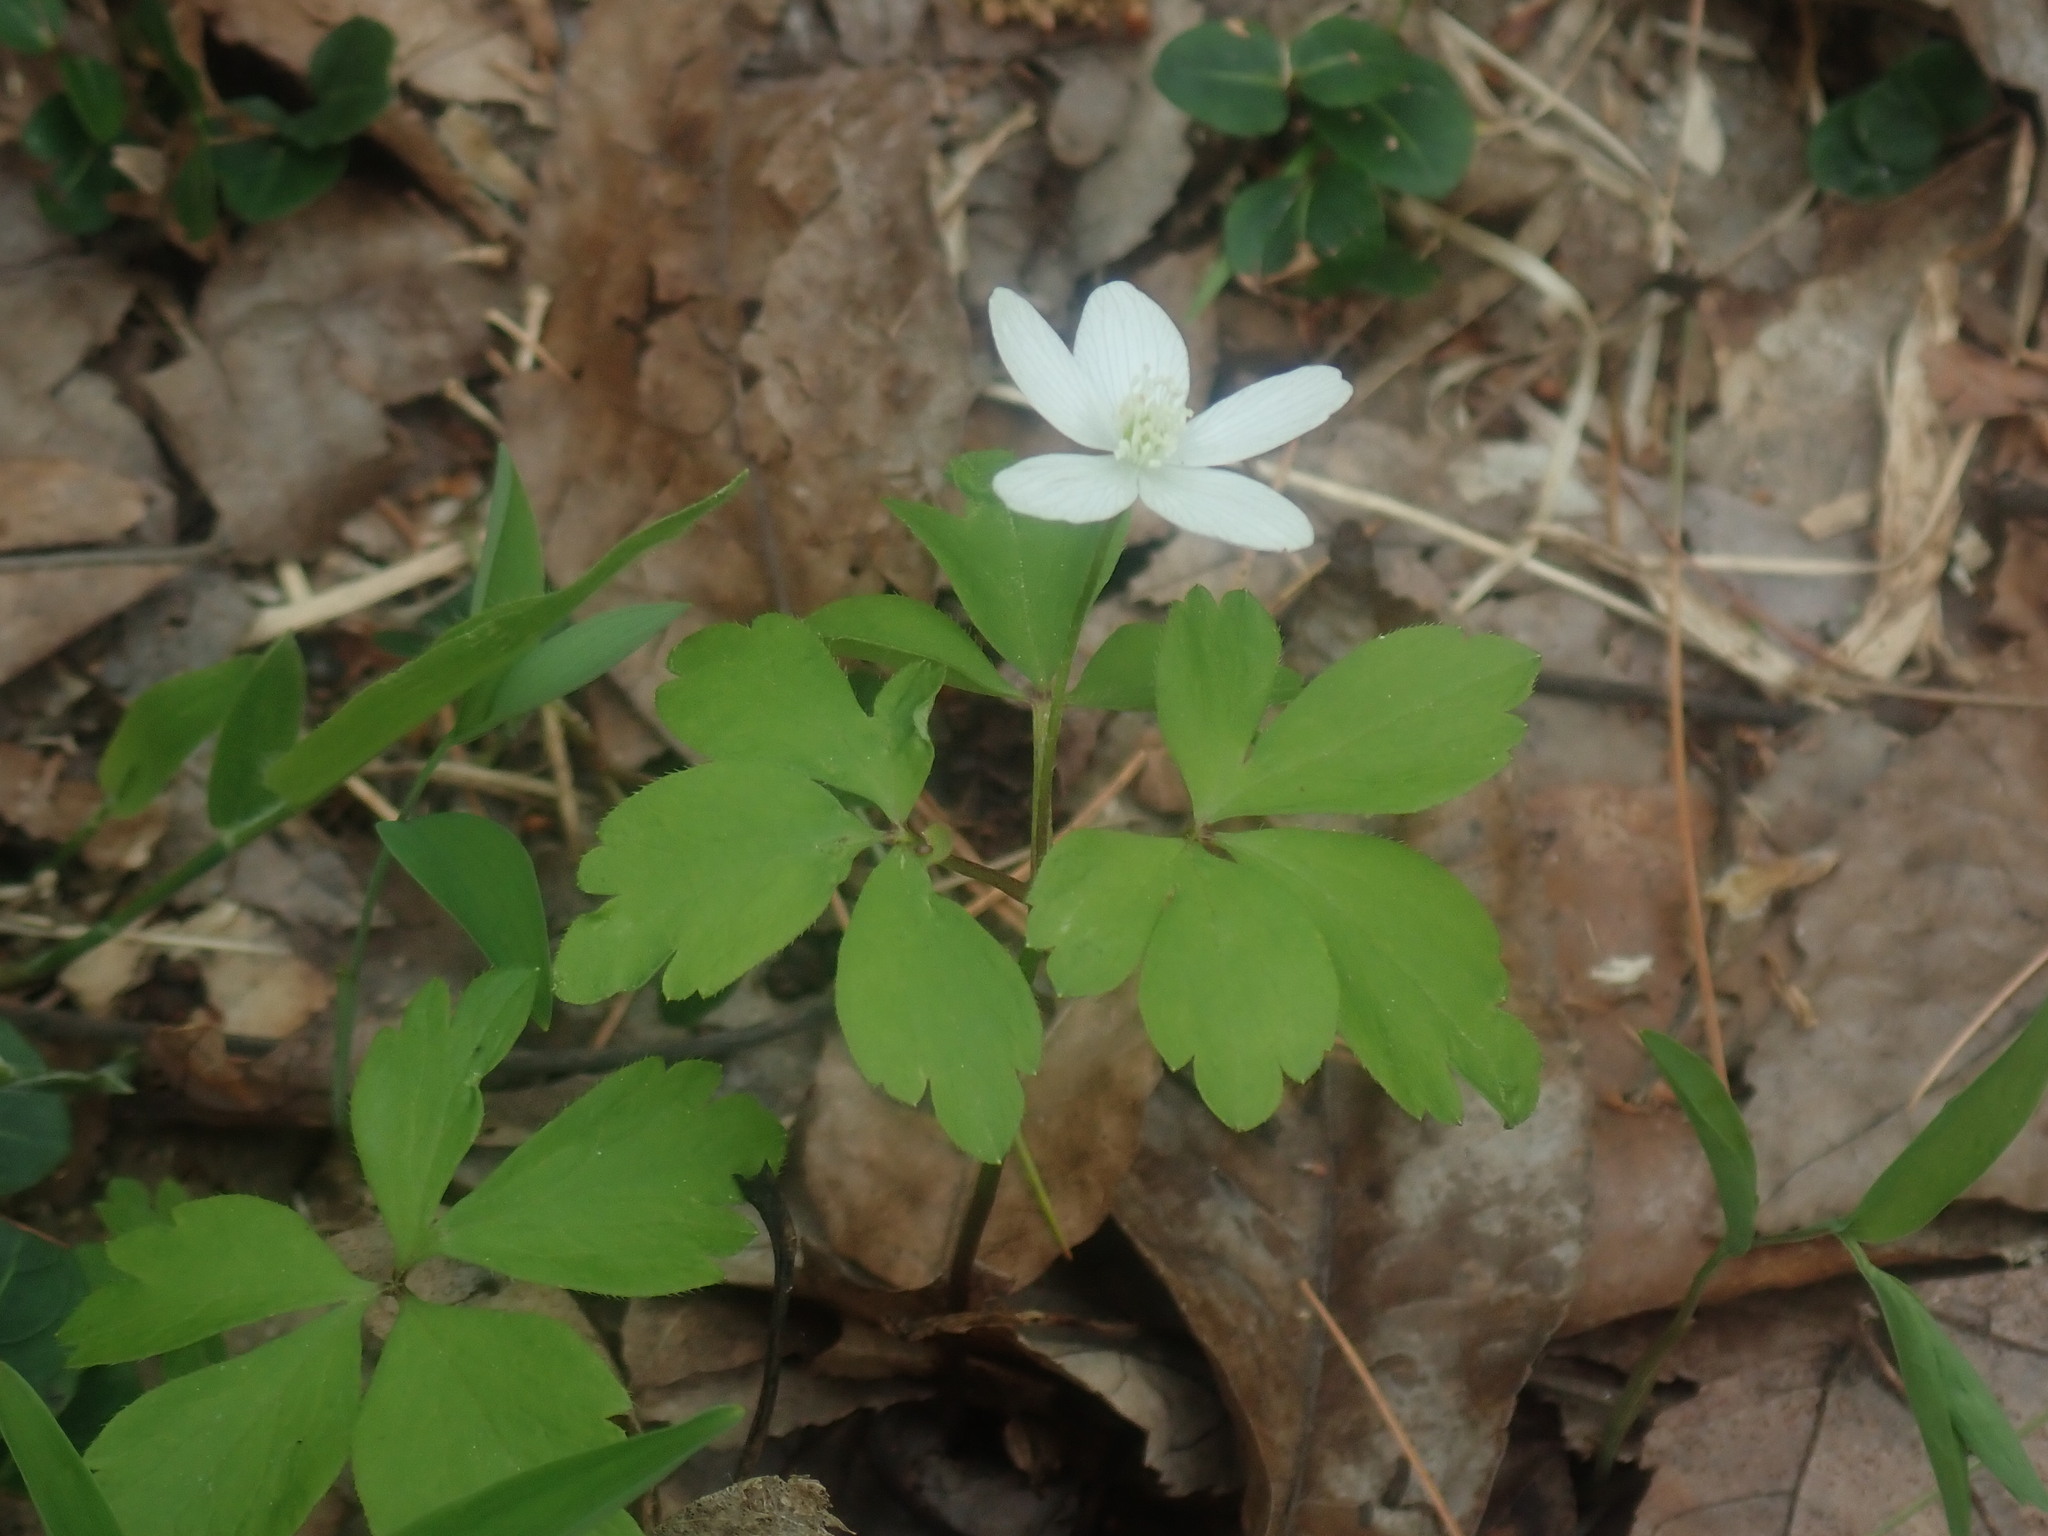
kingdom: Plantae
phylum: Tracheophyta
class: Magnoliopsida
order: Ranunculales
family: Ranunculaceae
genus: Anemone
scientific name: Anemone quinquefolia
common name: Wood anemone
